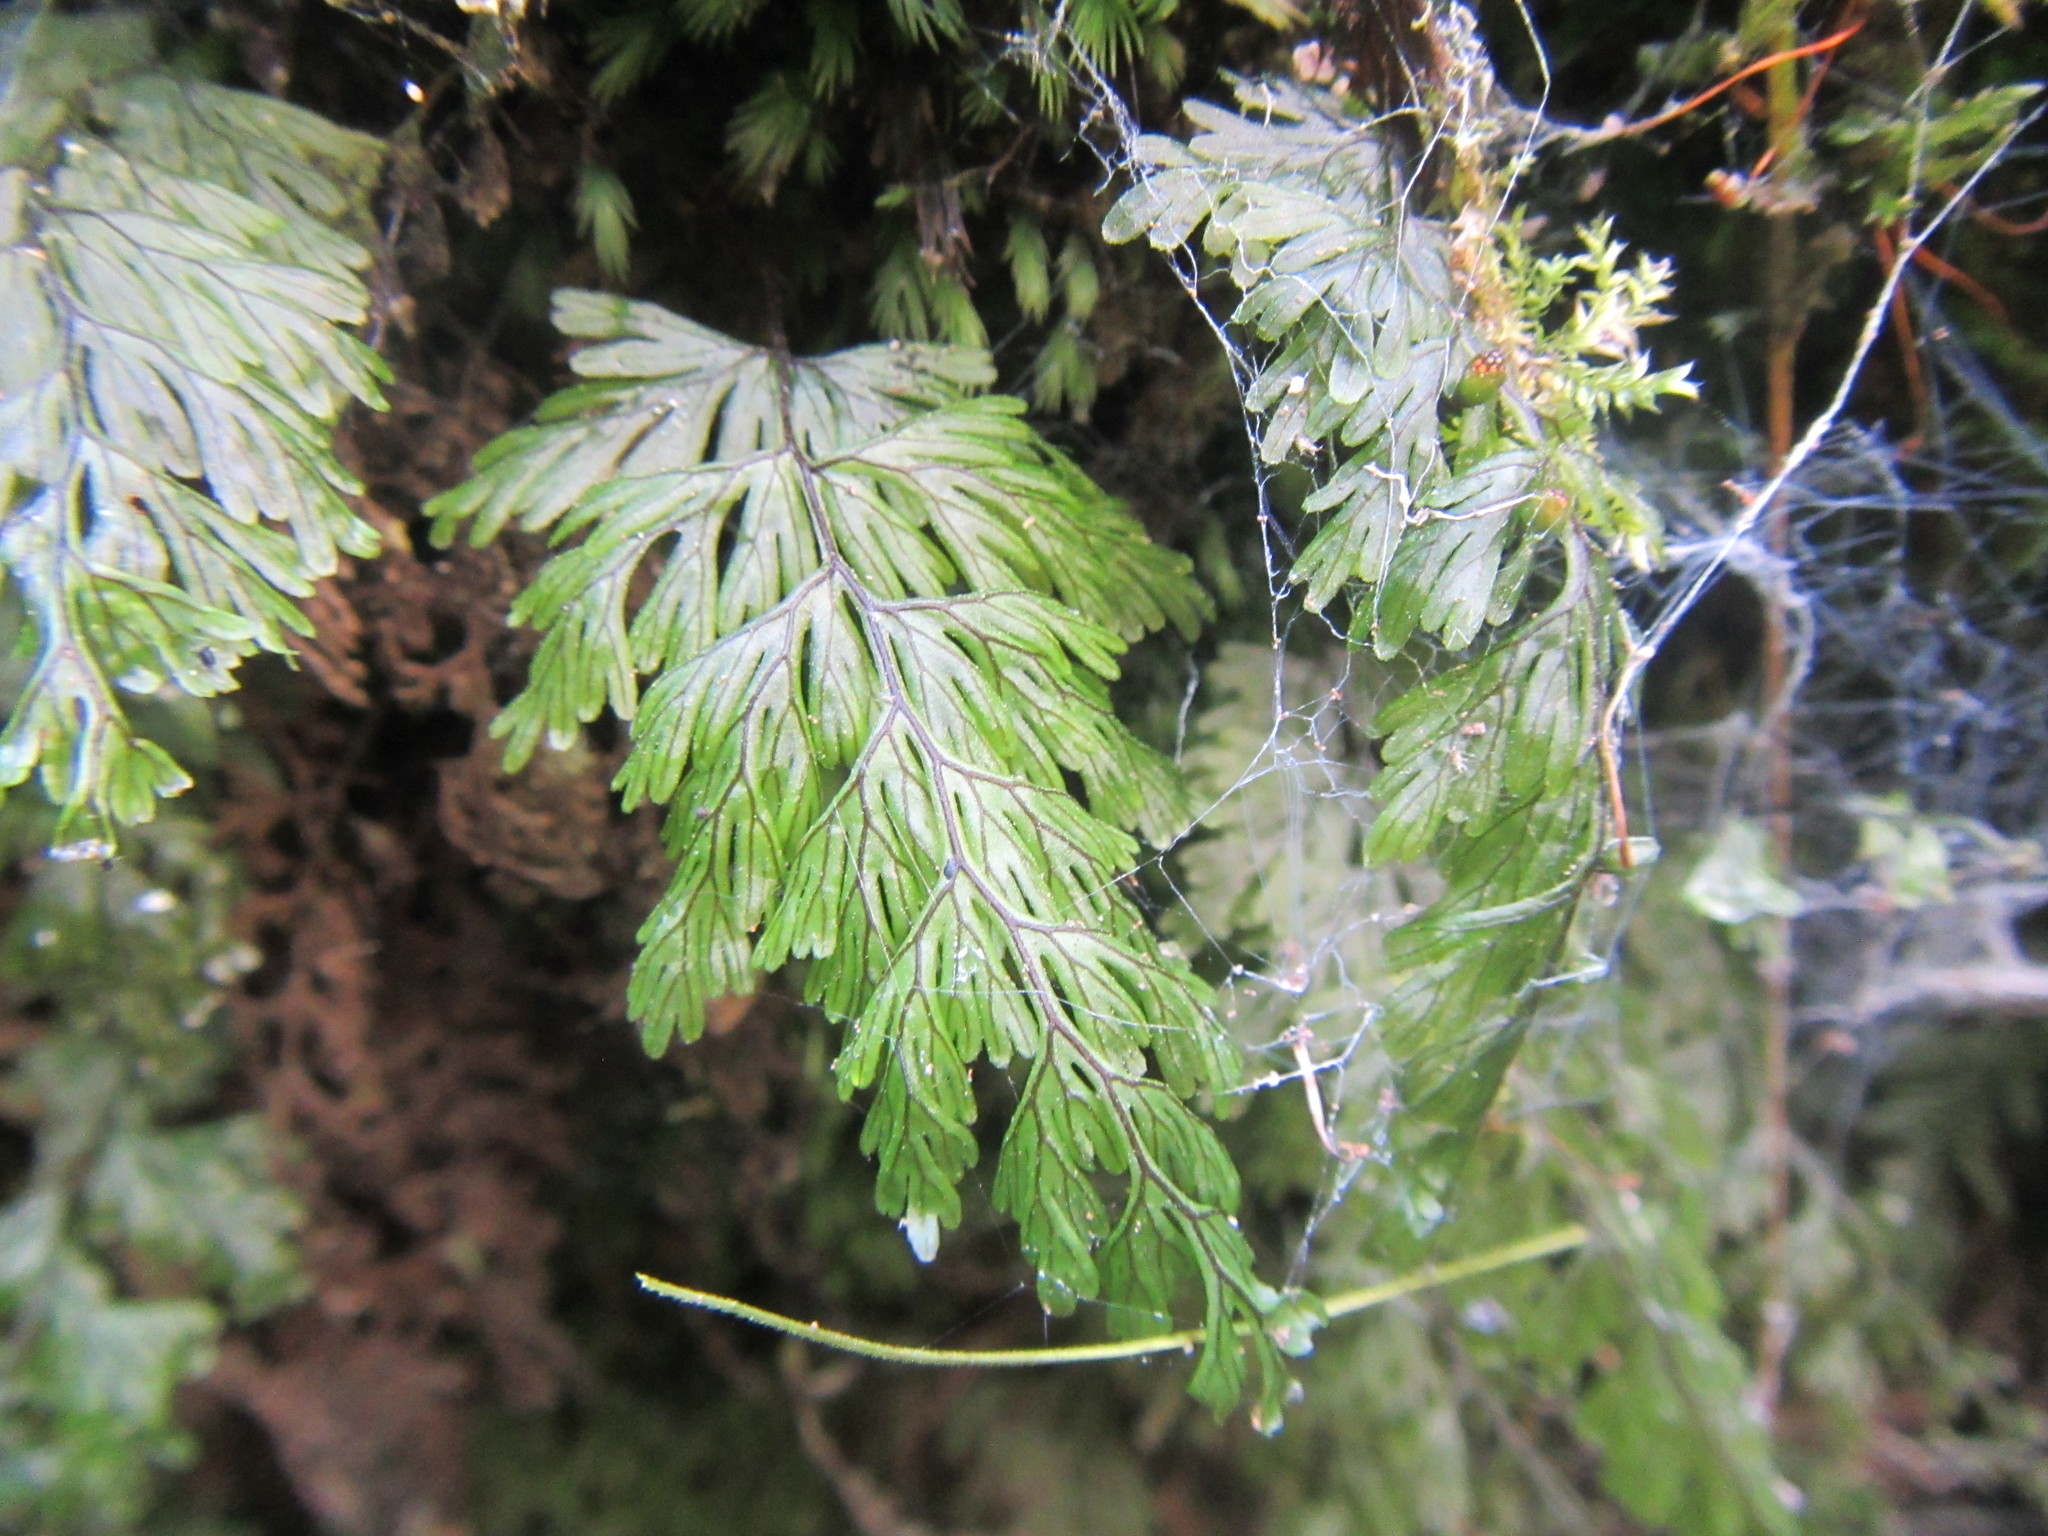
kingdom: Plantae
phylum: Tracheophyta
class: Polypodiopsida
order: Hymenophyllales
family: Hymenophyllaceae
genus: Hymenophyllum
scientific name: Hymenophyllum tunbrigense
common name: Tunbridge filmy fern
